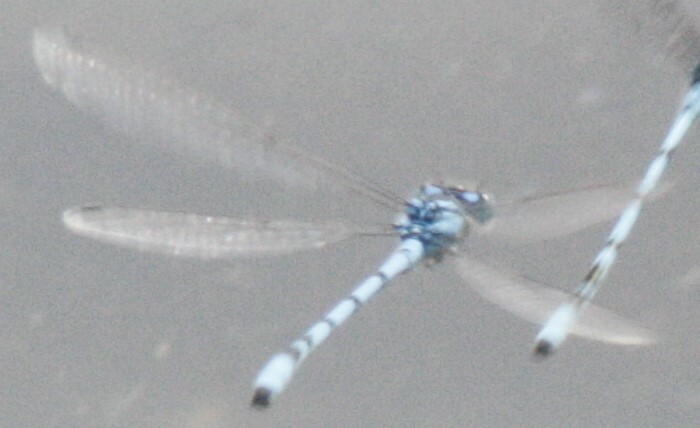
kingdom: Animalia
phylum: Arthropoda
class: Insecta
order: Odonata
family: Coenagrionidae
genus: Enallagma
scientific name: Enallagma cyathigerum
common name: Common blue damselfly
